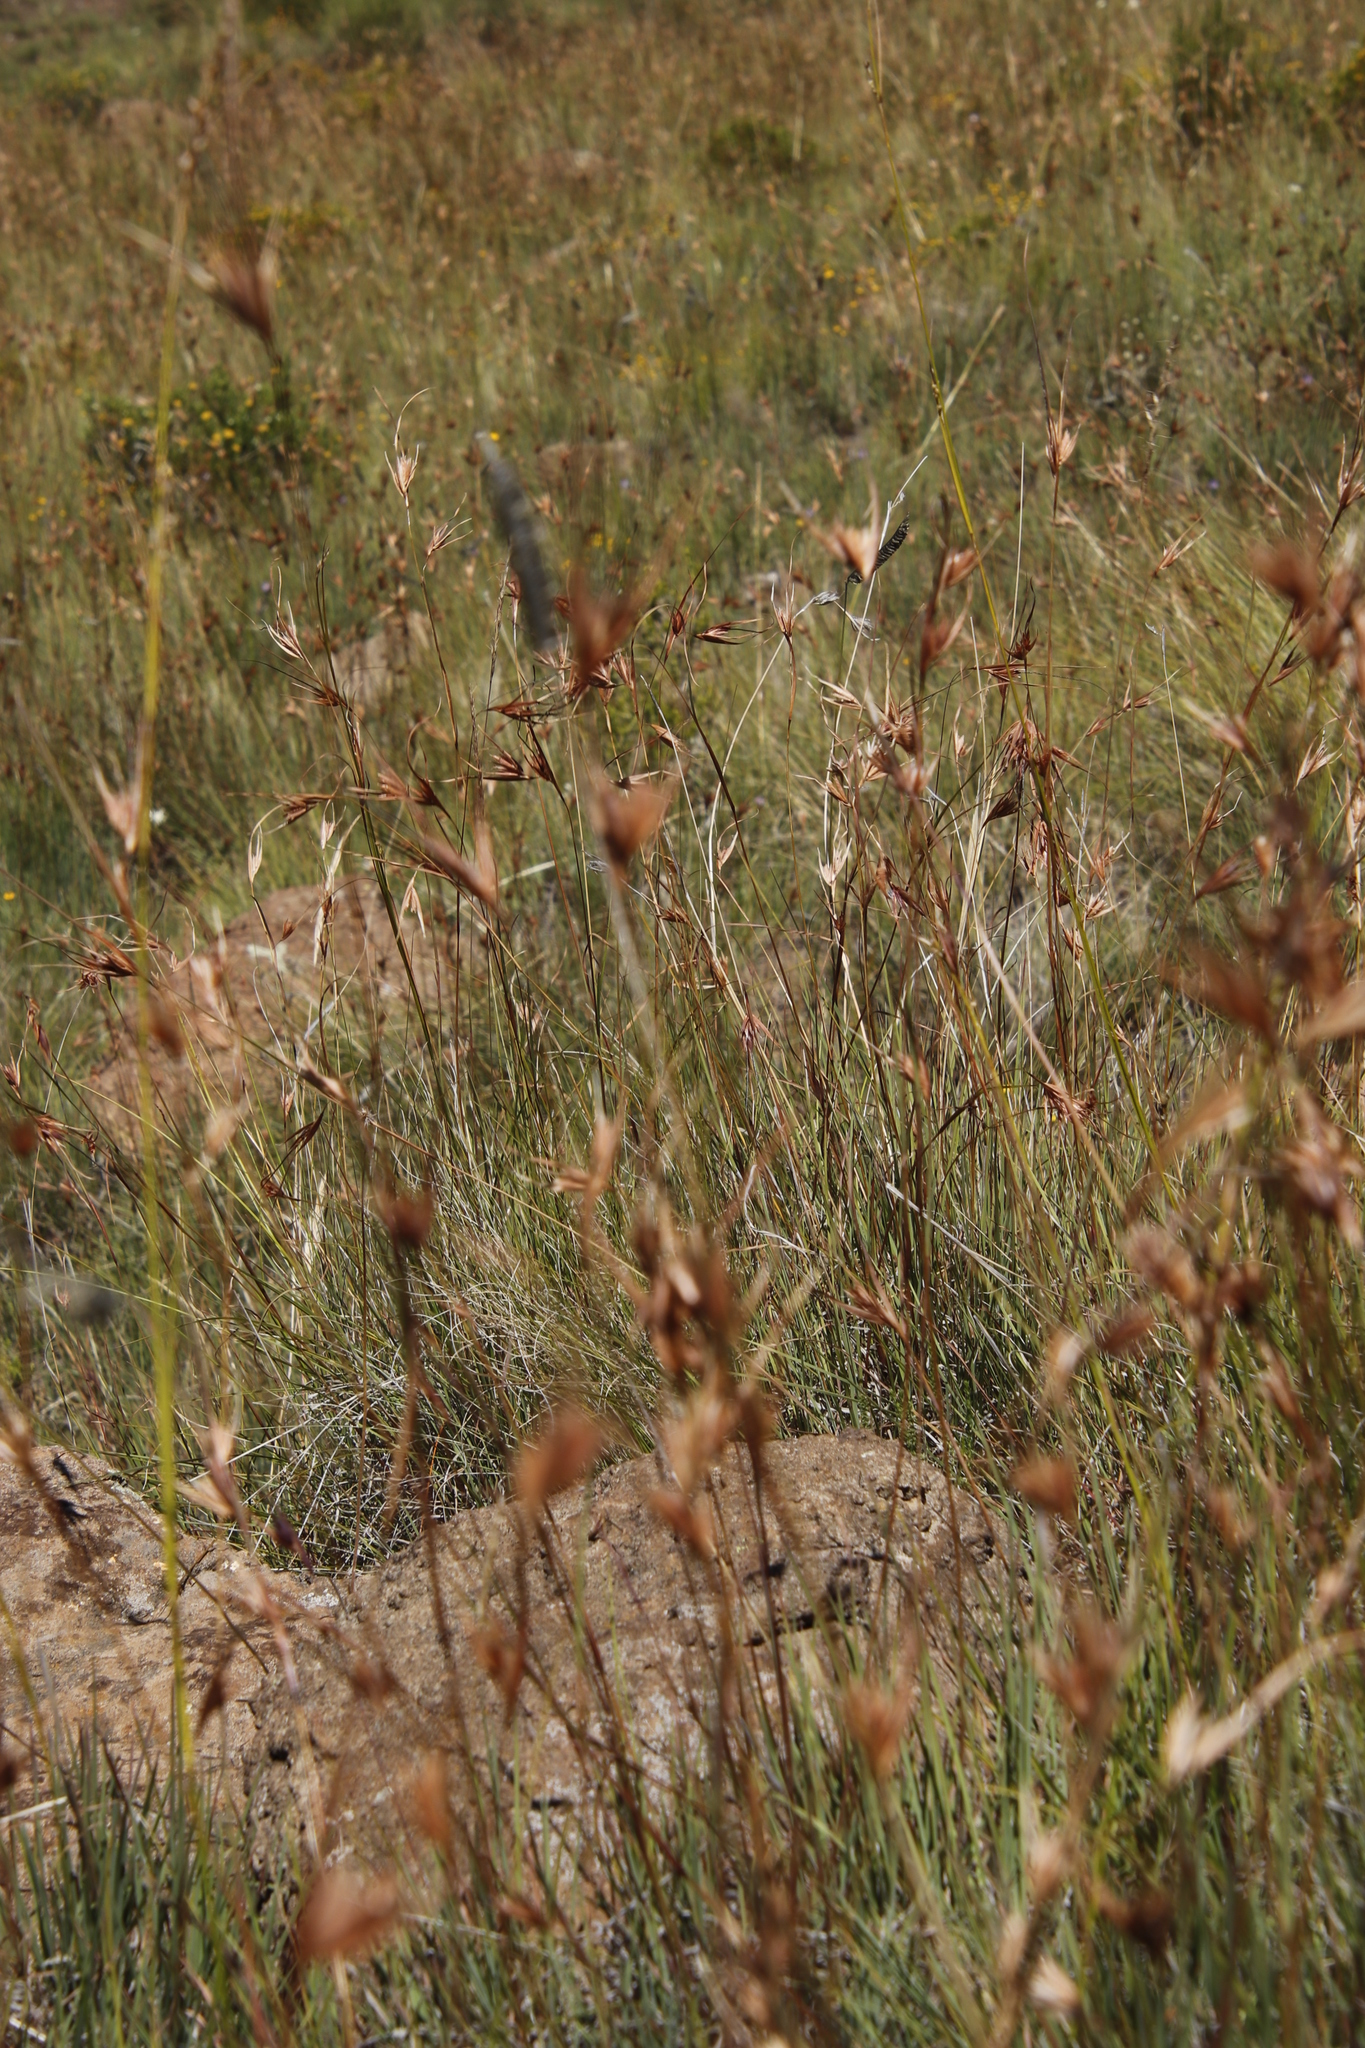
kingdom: Plantae
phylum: Tracheophyta
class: Liliopsida
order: Poales
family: Poaceae
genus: Harpochloa
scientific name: Harpochloa falx
